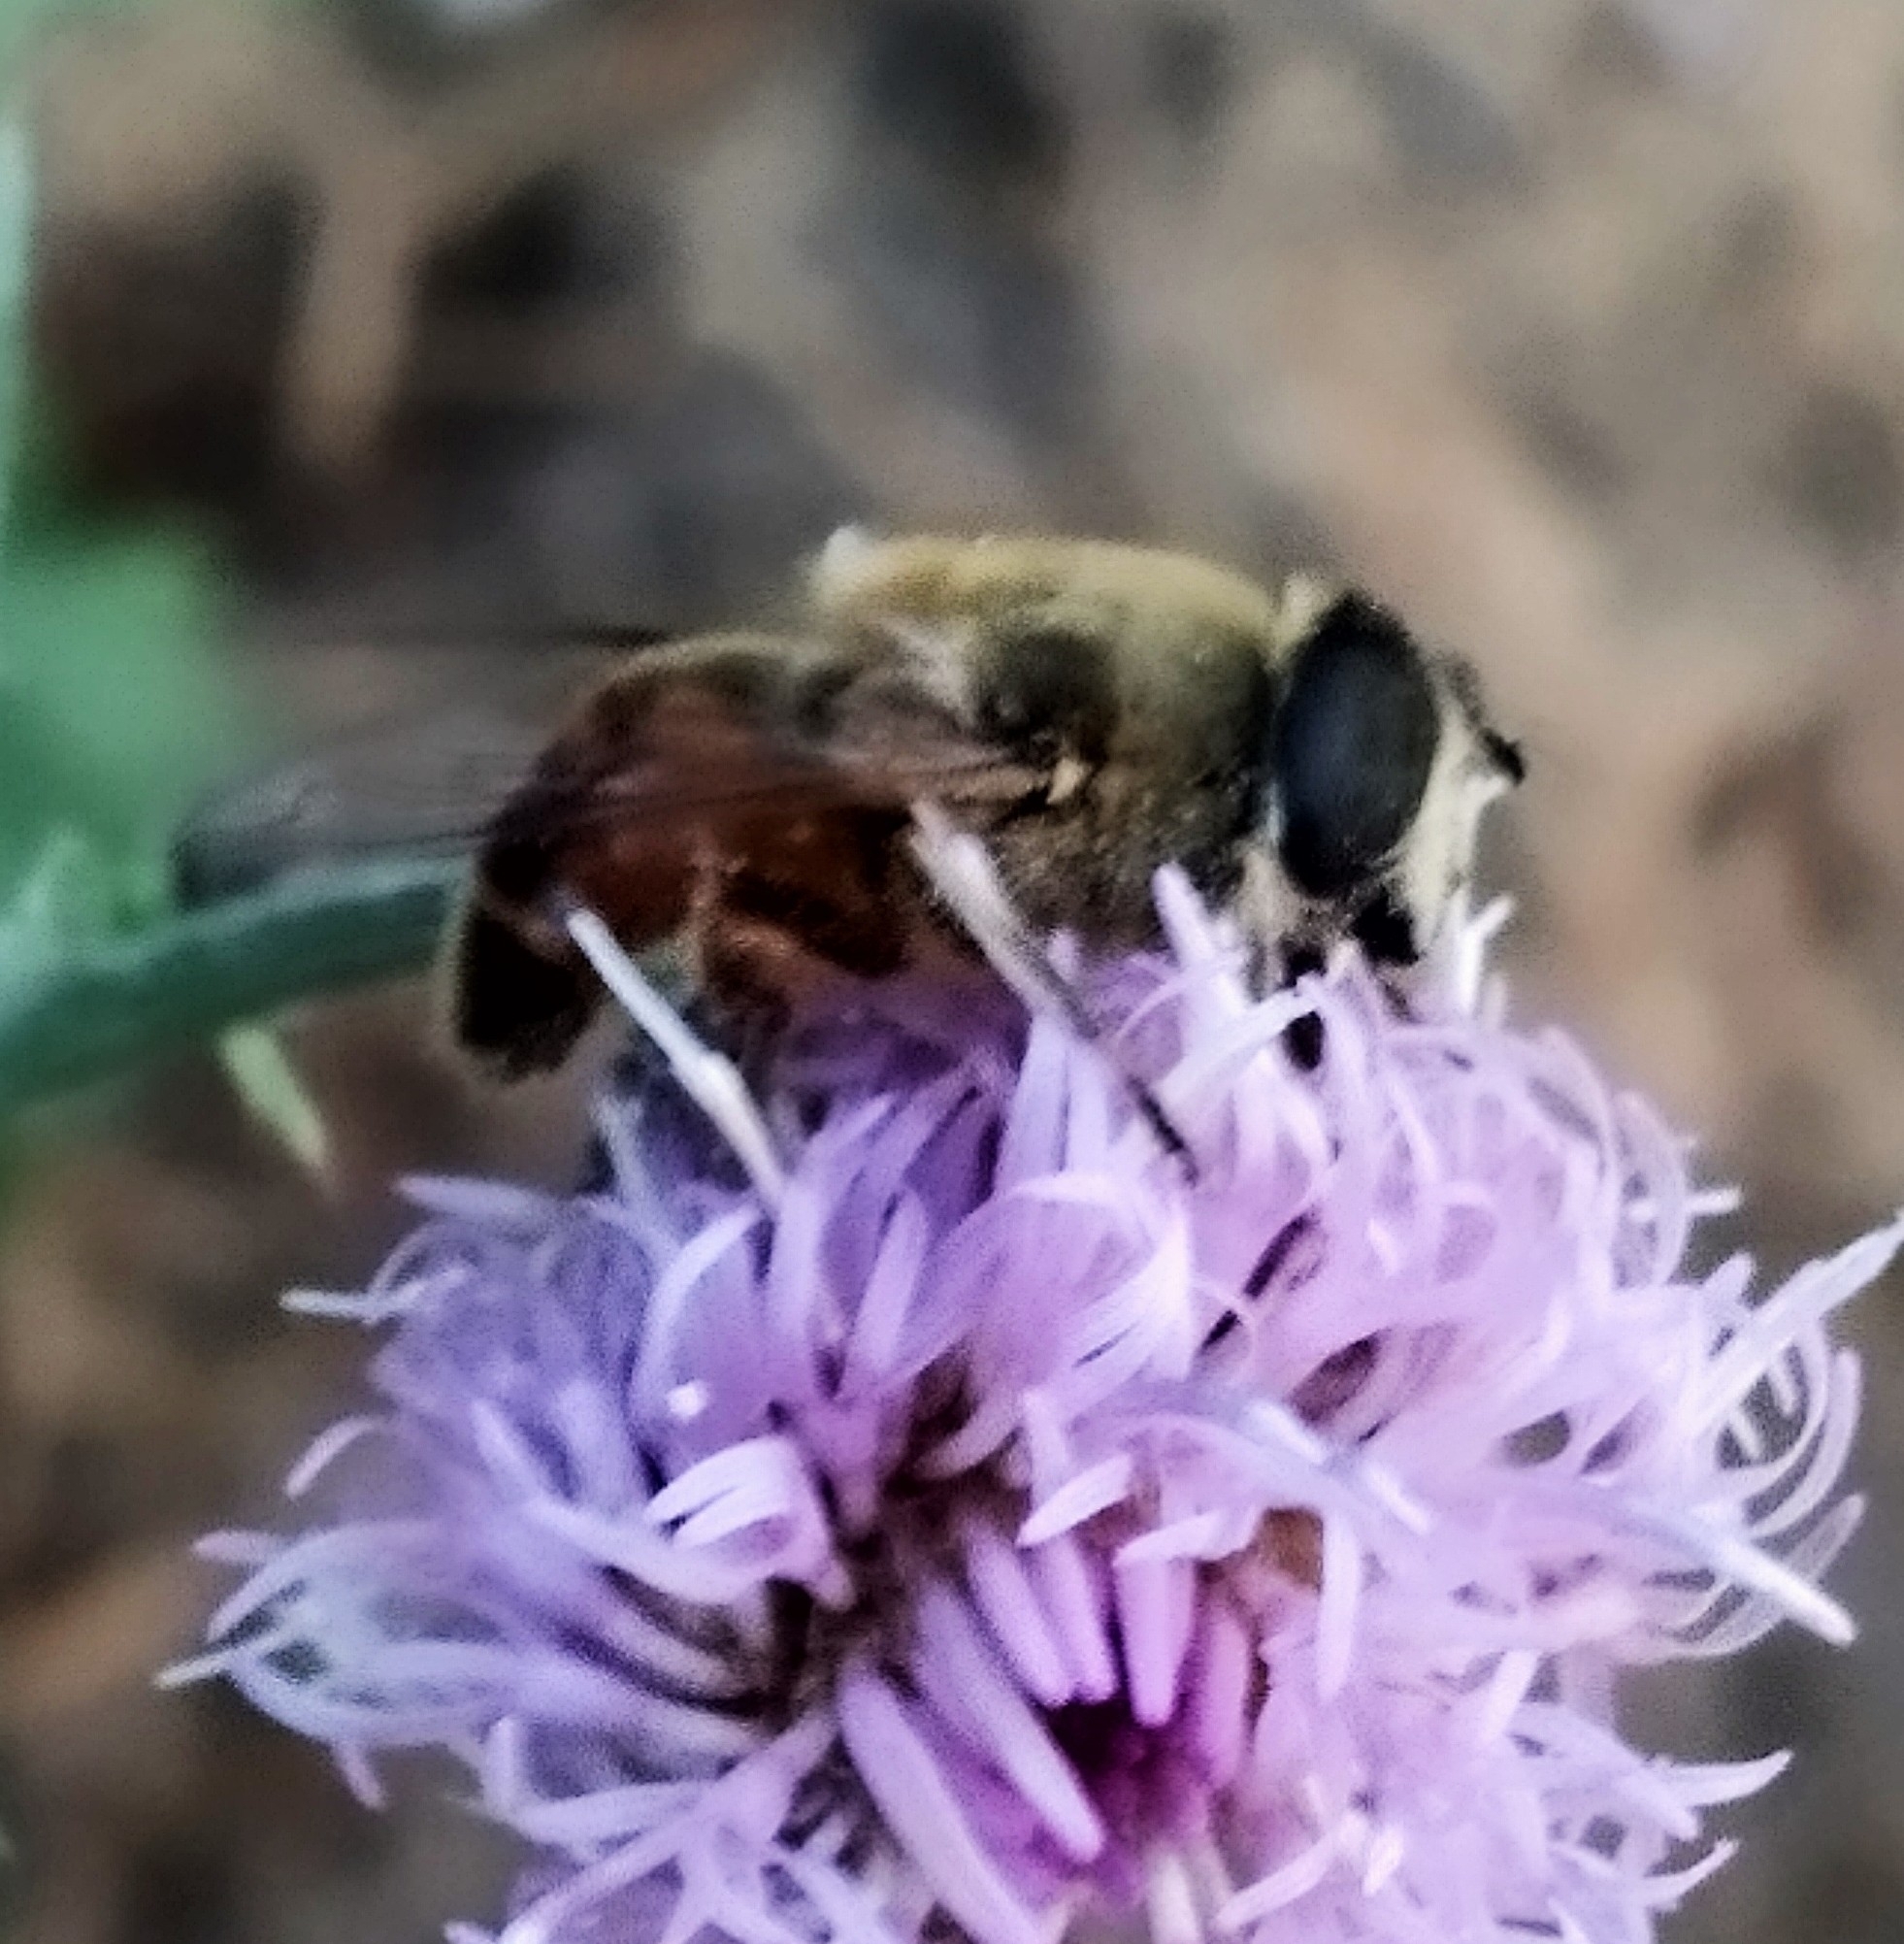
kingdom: Animalia
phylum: Arthropoda
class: Insecta
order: Diptera
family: Syrphidae
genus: Eristalis
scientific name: Eristalis tenax
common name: Drone fly
